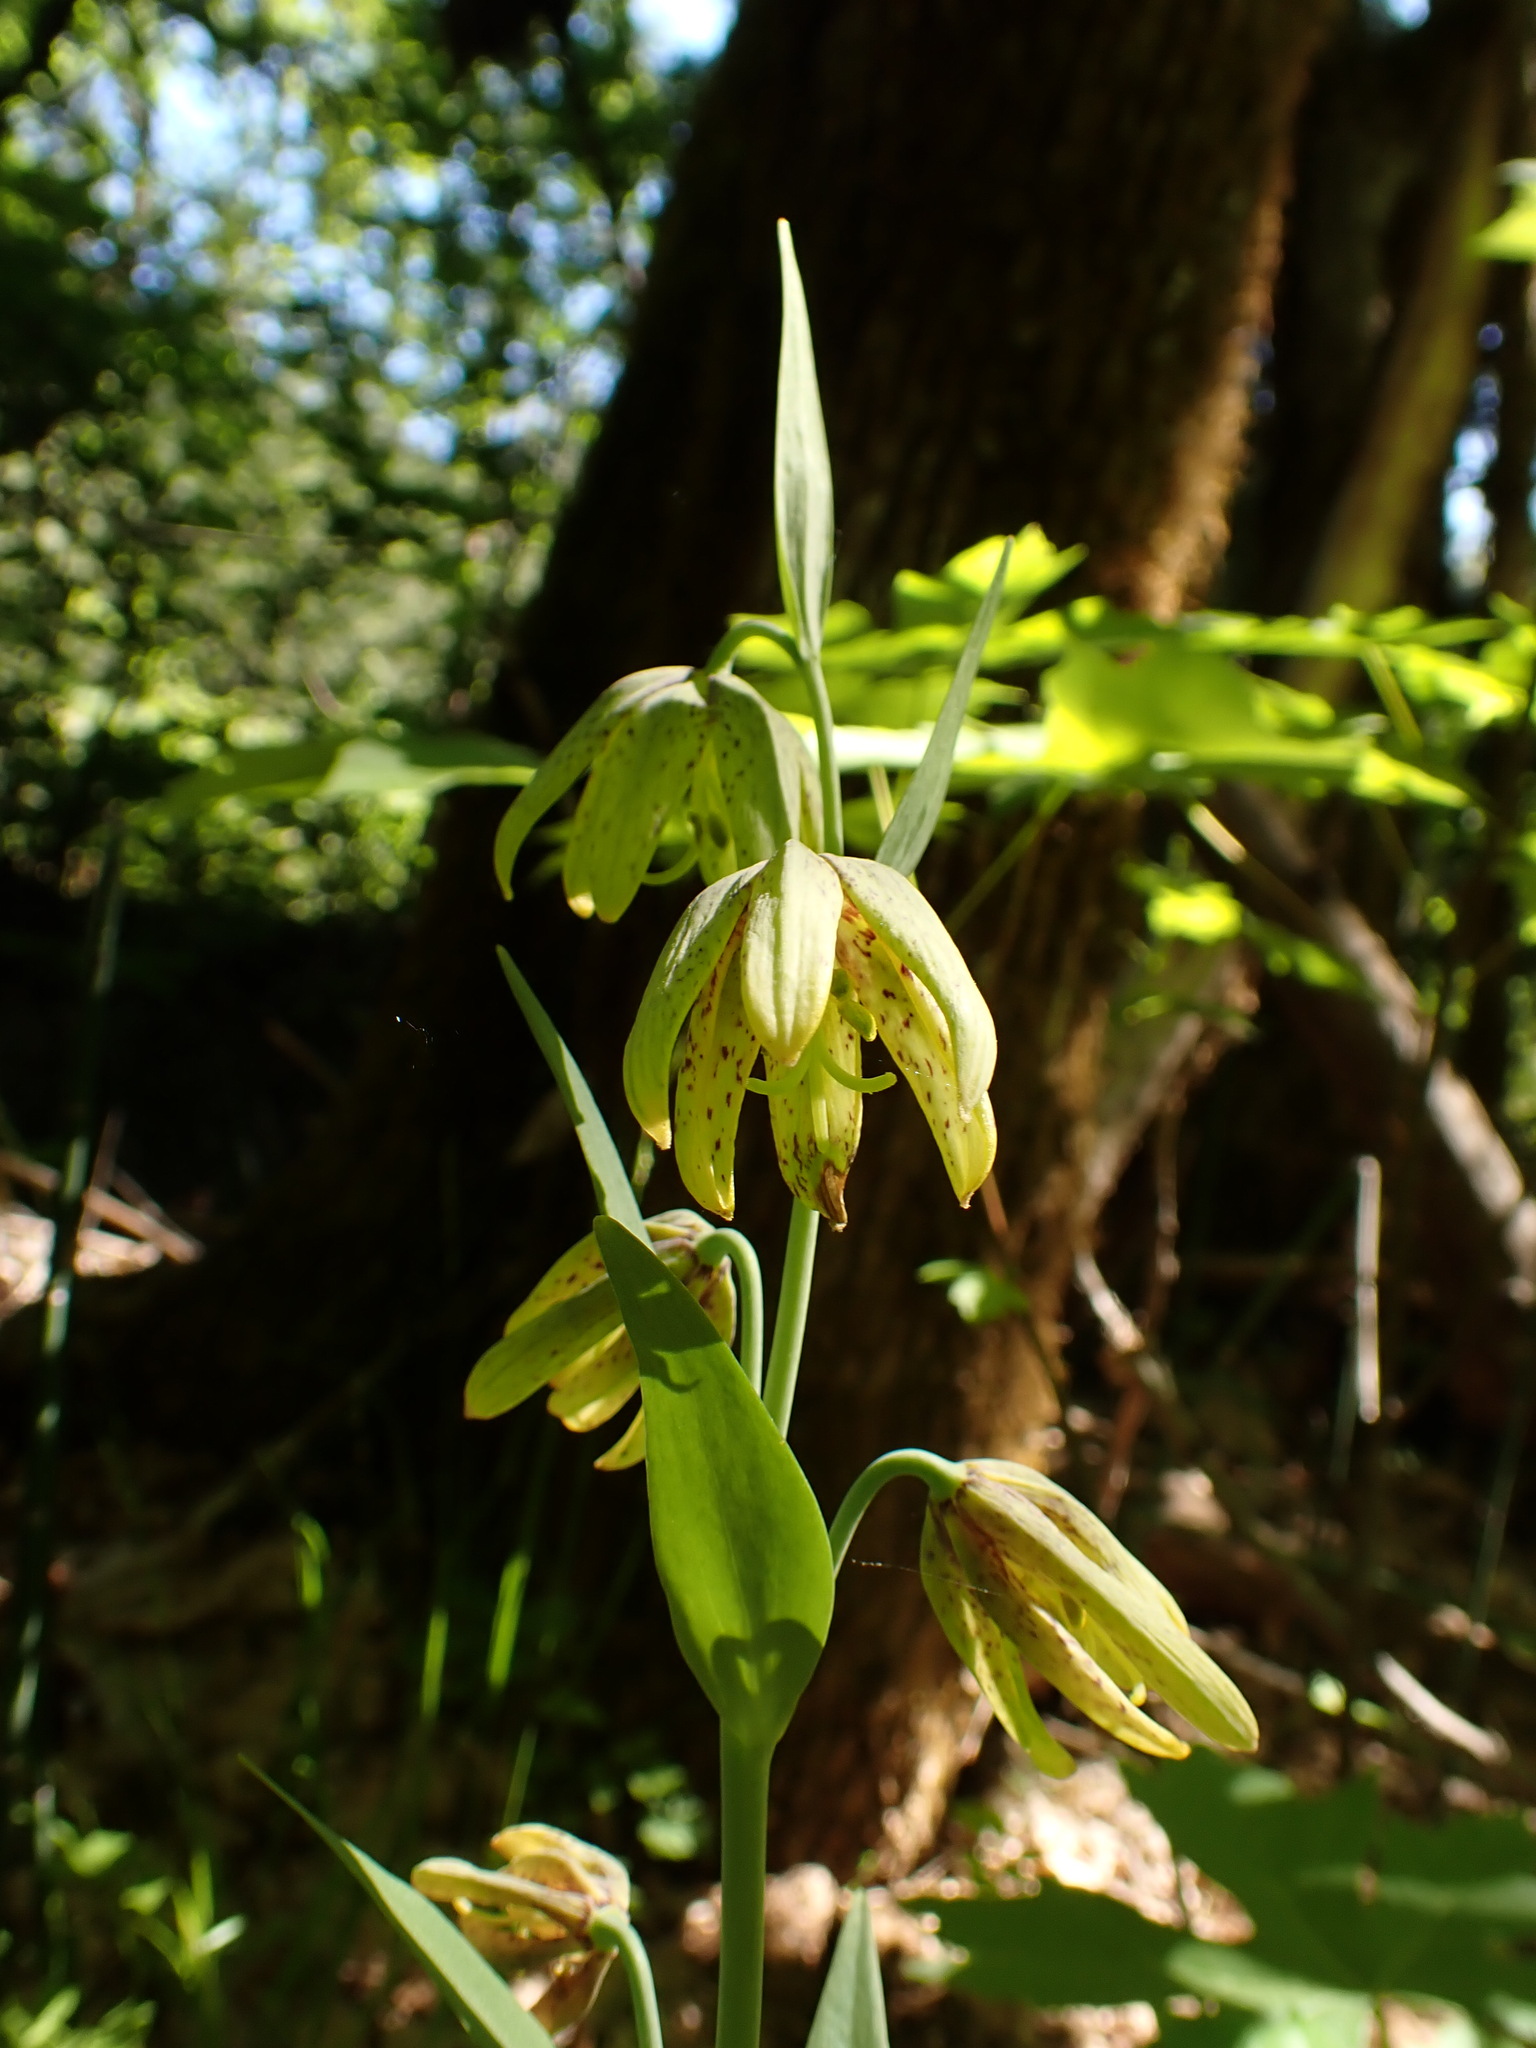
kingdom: Plantae
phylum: Tracheophyta
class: Liliopsida
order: Liliales
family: Liliaceae
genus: Fritillaria
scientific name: Fritillaria affinis
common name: Ojai fritillary
